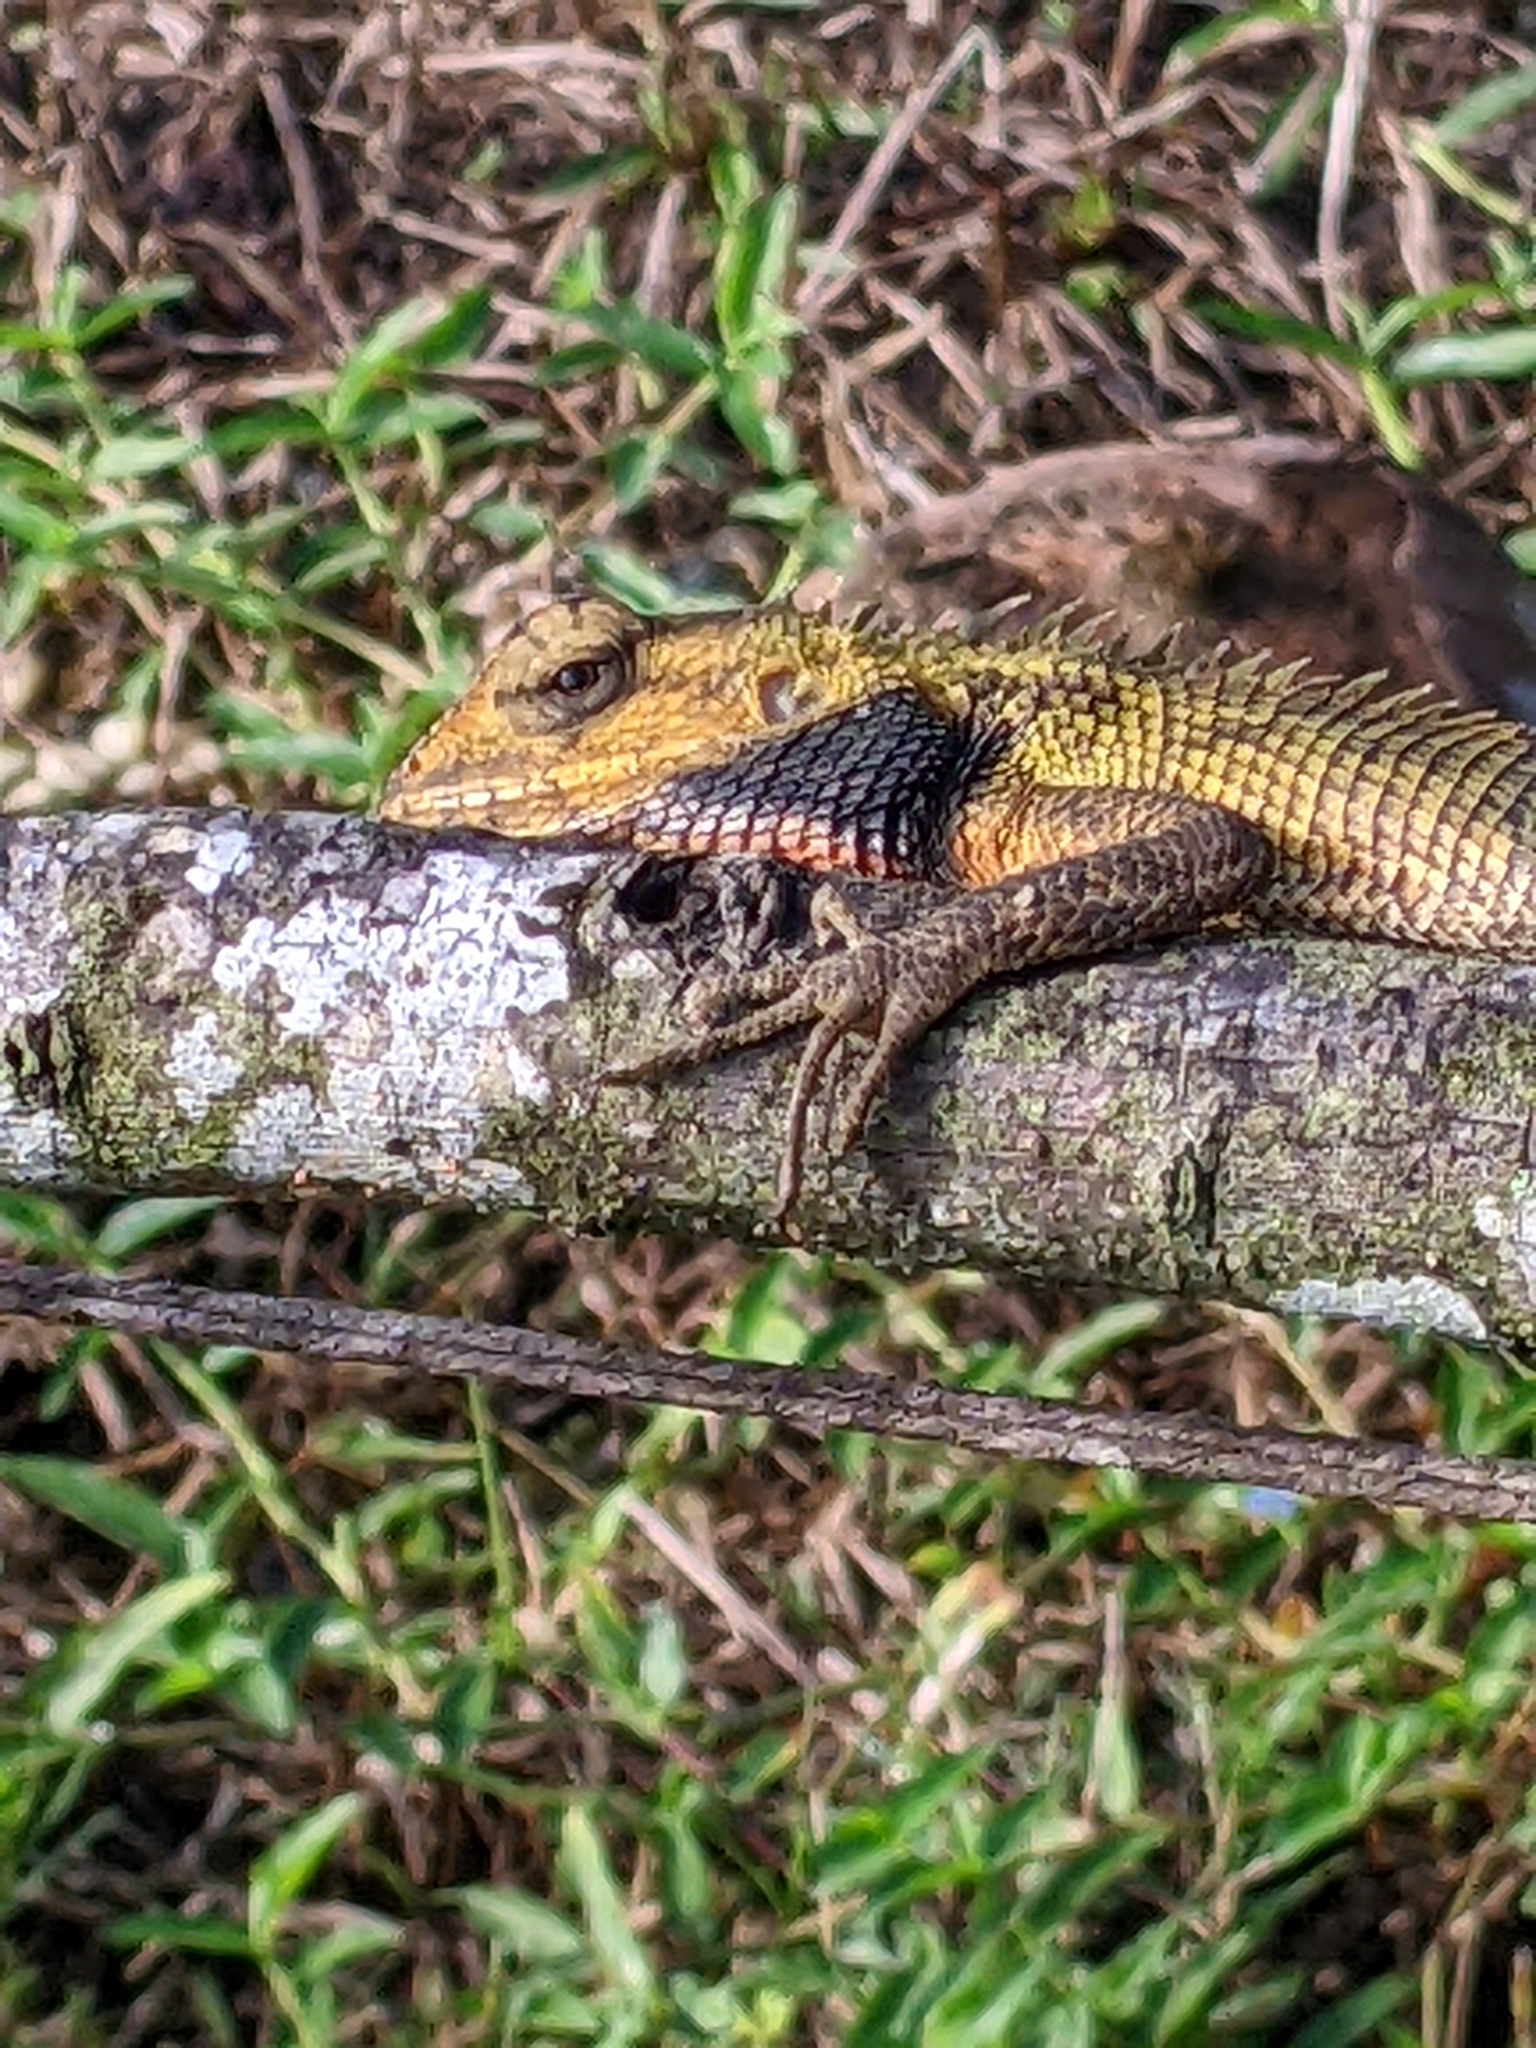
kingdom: Animalia
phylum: Chordata
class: Squamata
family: Agamidae
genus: Calotes
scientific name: Calotes versicolor
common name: Oriental garden lizard
